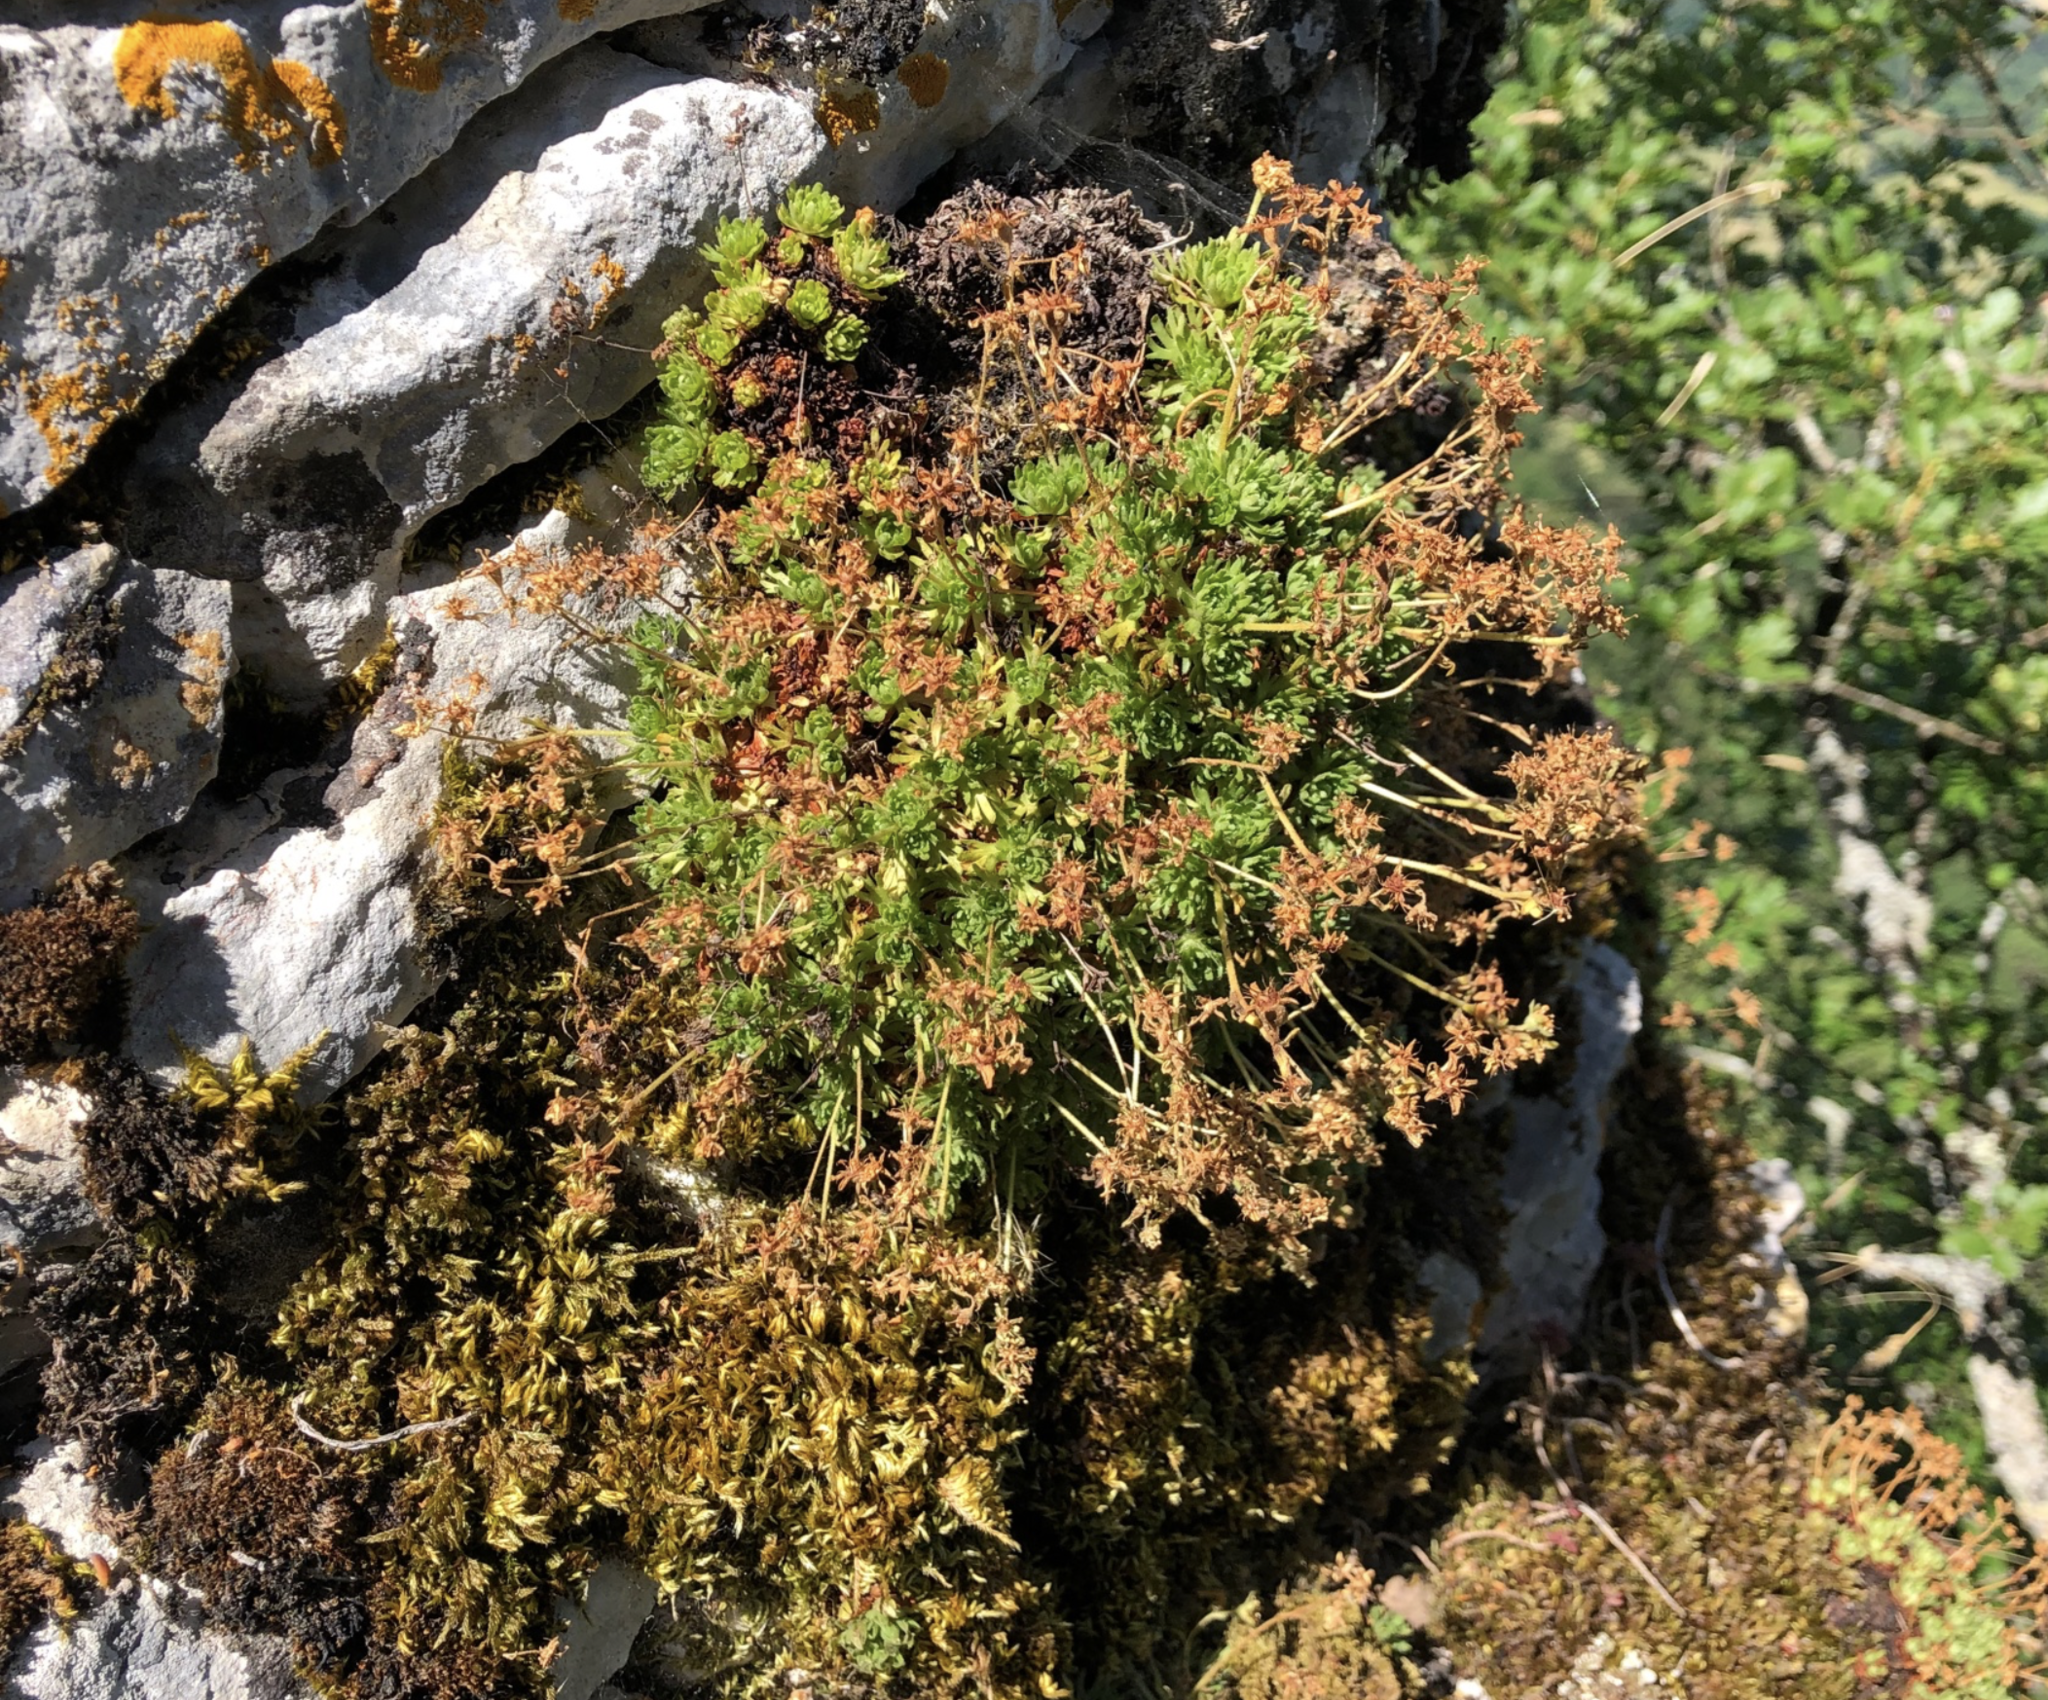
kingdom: Plantae
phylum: Tracheophyta
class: Magnoliopsida
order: Saxifragales
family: Saxifragaceae
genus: Saxifraga
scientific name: Saxifraga giziana
